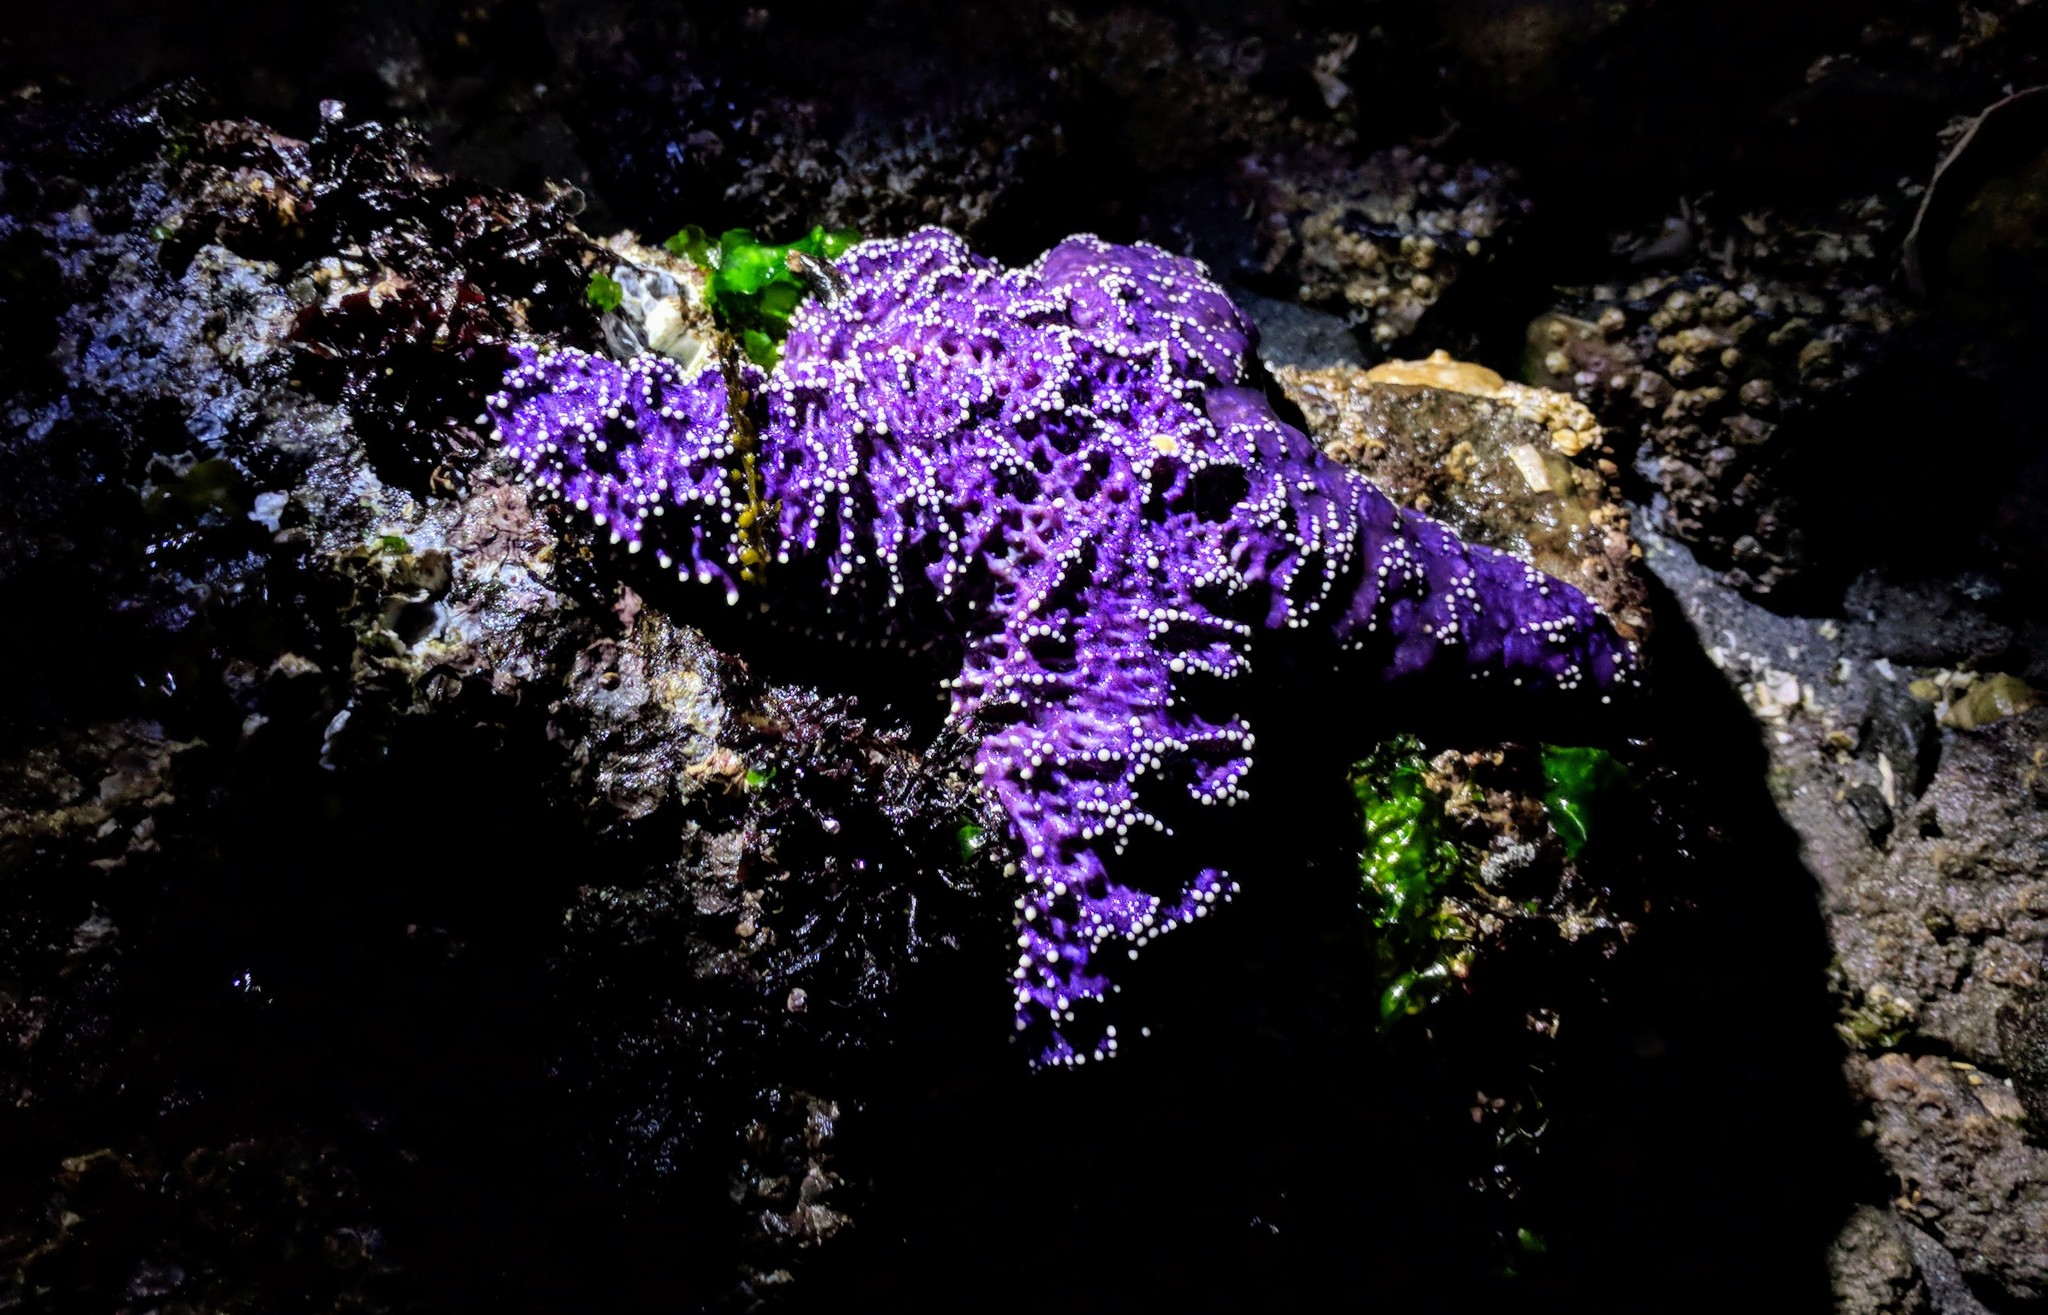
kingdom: Animalia
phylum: Echinodermata
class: Asteroidea
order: Forcipulatida
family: Asteriidae
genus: Pisaster
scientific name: Pisaster ochraceus
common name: Ochre stars
